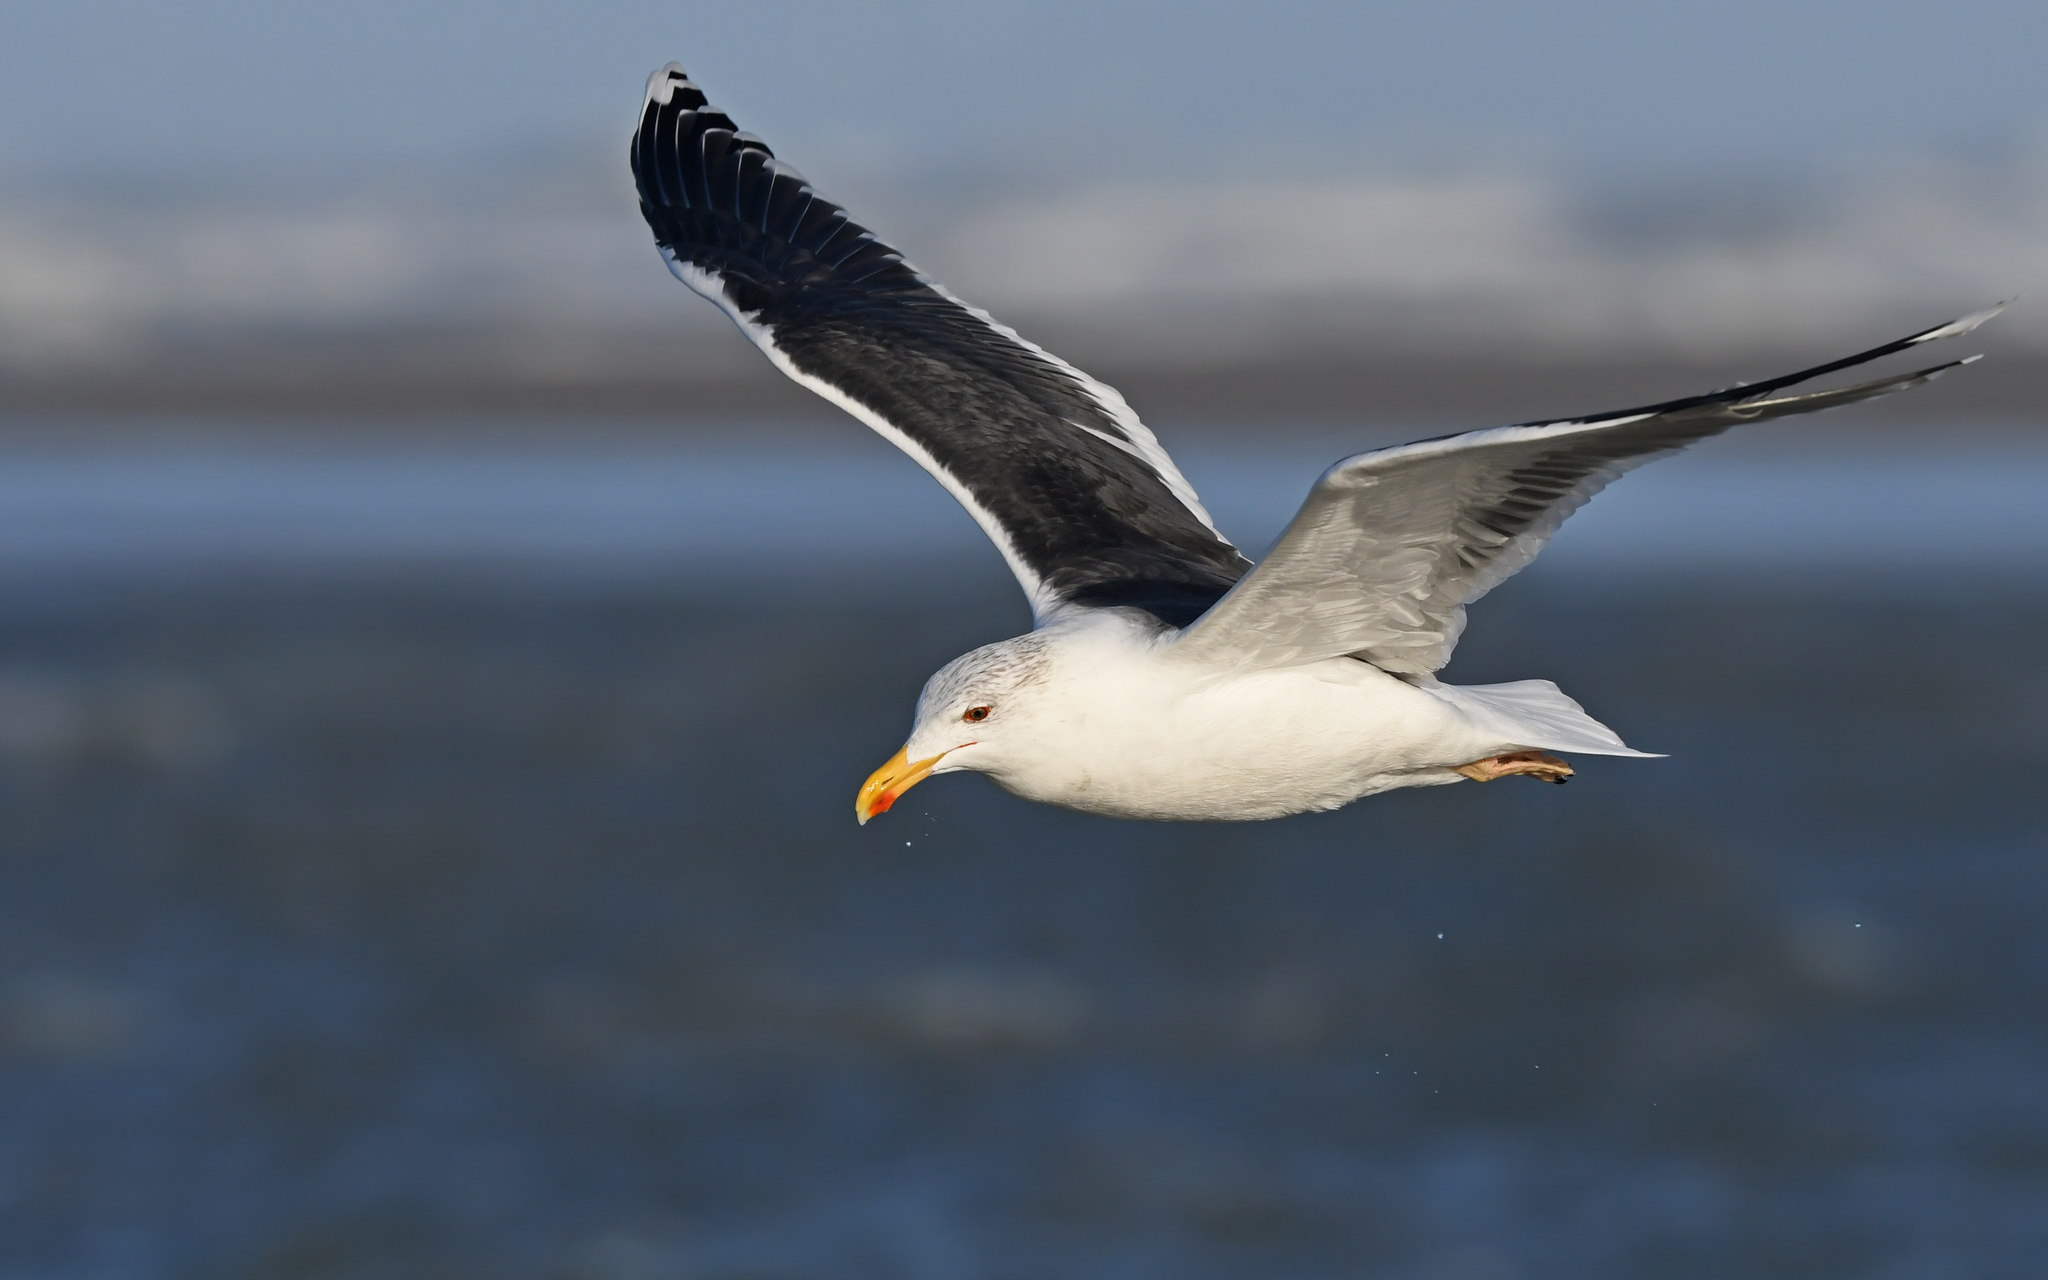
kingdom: Animalia
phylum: Chordata
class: Aves
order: Charadriiformes
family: Laridae
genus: Larus
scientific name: Larus marinus
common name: Great black-backed gull
